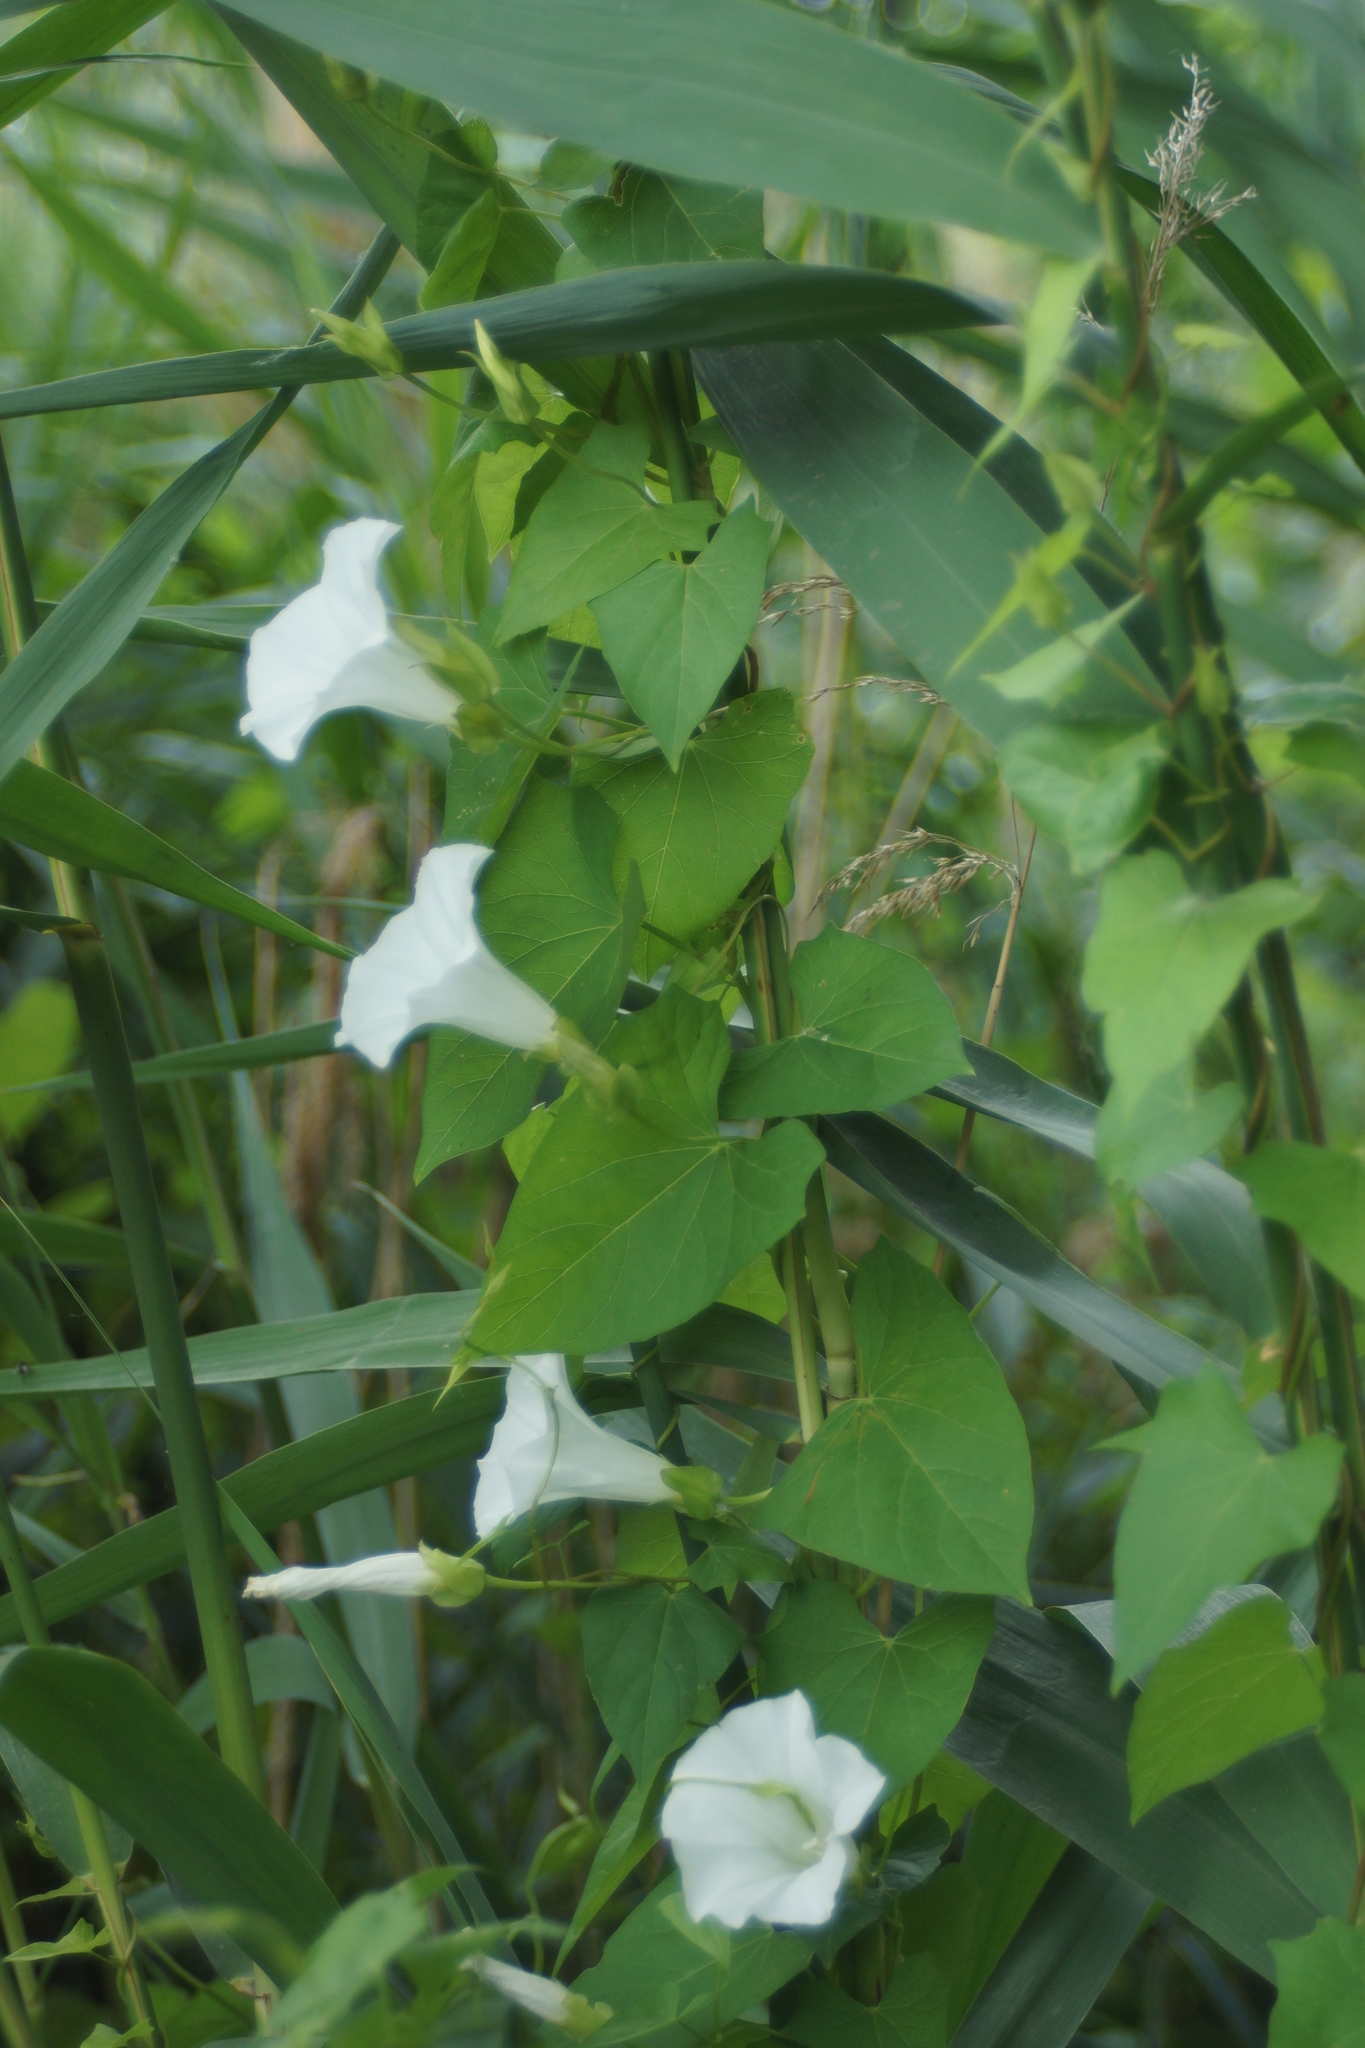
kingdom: Plantae
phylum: Tracheophyta
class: Magnoliopsida
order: Solanales
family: Convolvulaceae
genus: Calystegia
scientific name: Calystegia sepium
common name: Hedge bindweed
